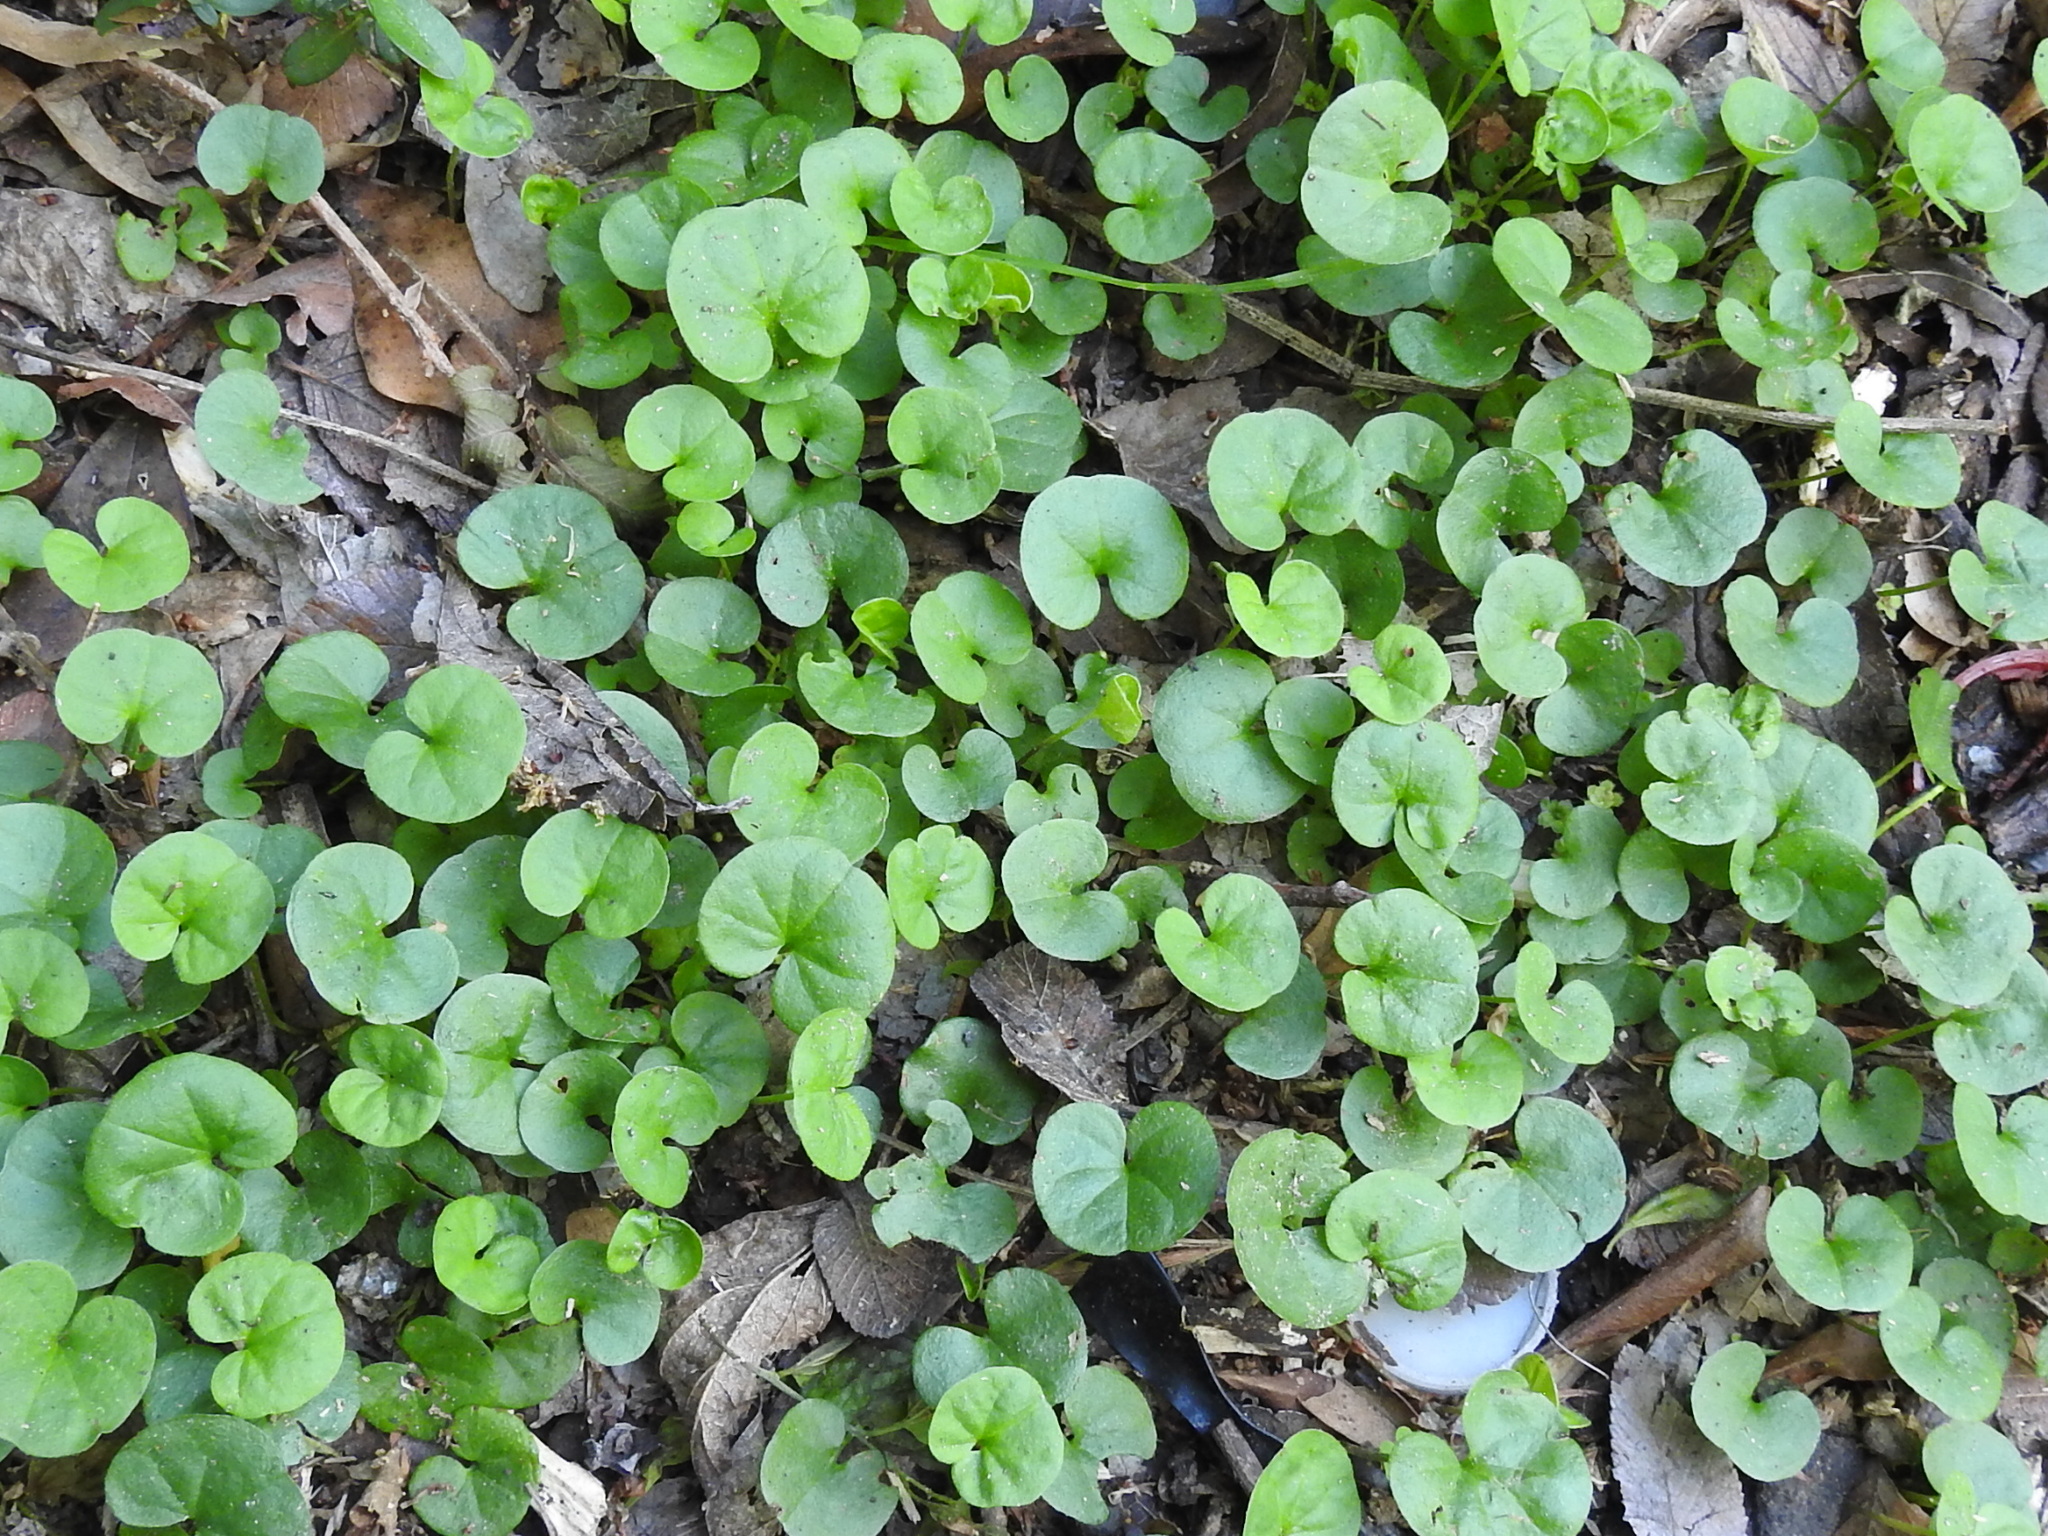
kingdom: Plantae
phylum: Tracheophyta
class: Magnoliopsida
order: Solanales
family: Convolvulaceae
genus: Dichondra
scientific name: Dichondra carolinensis
